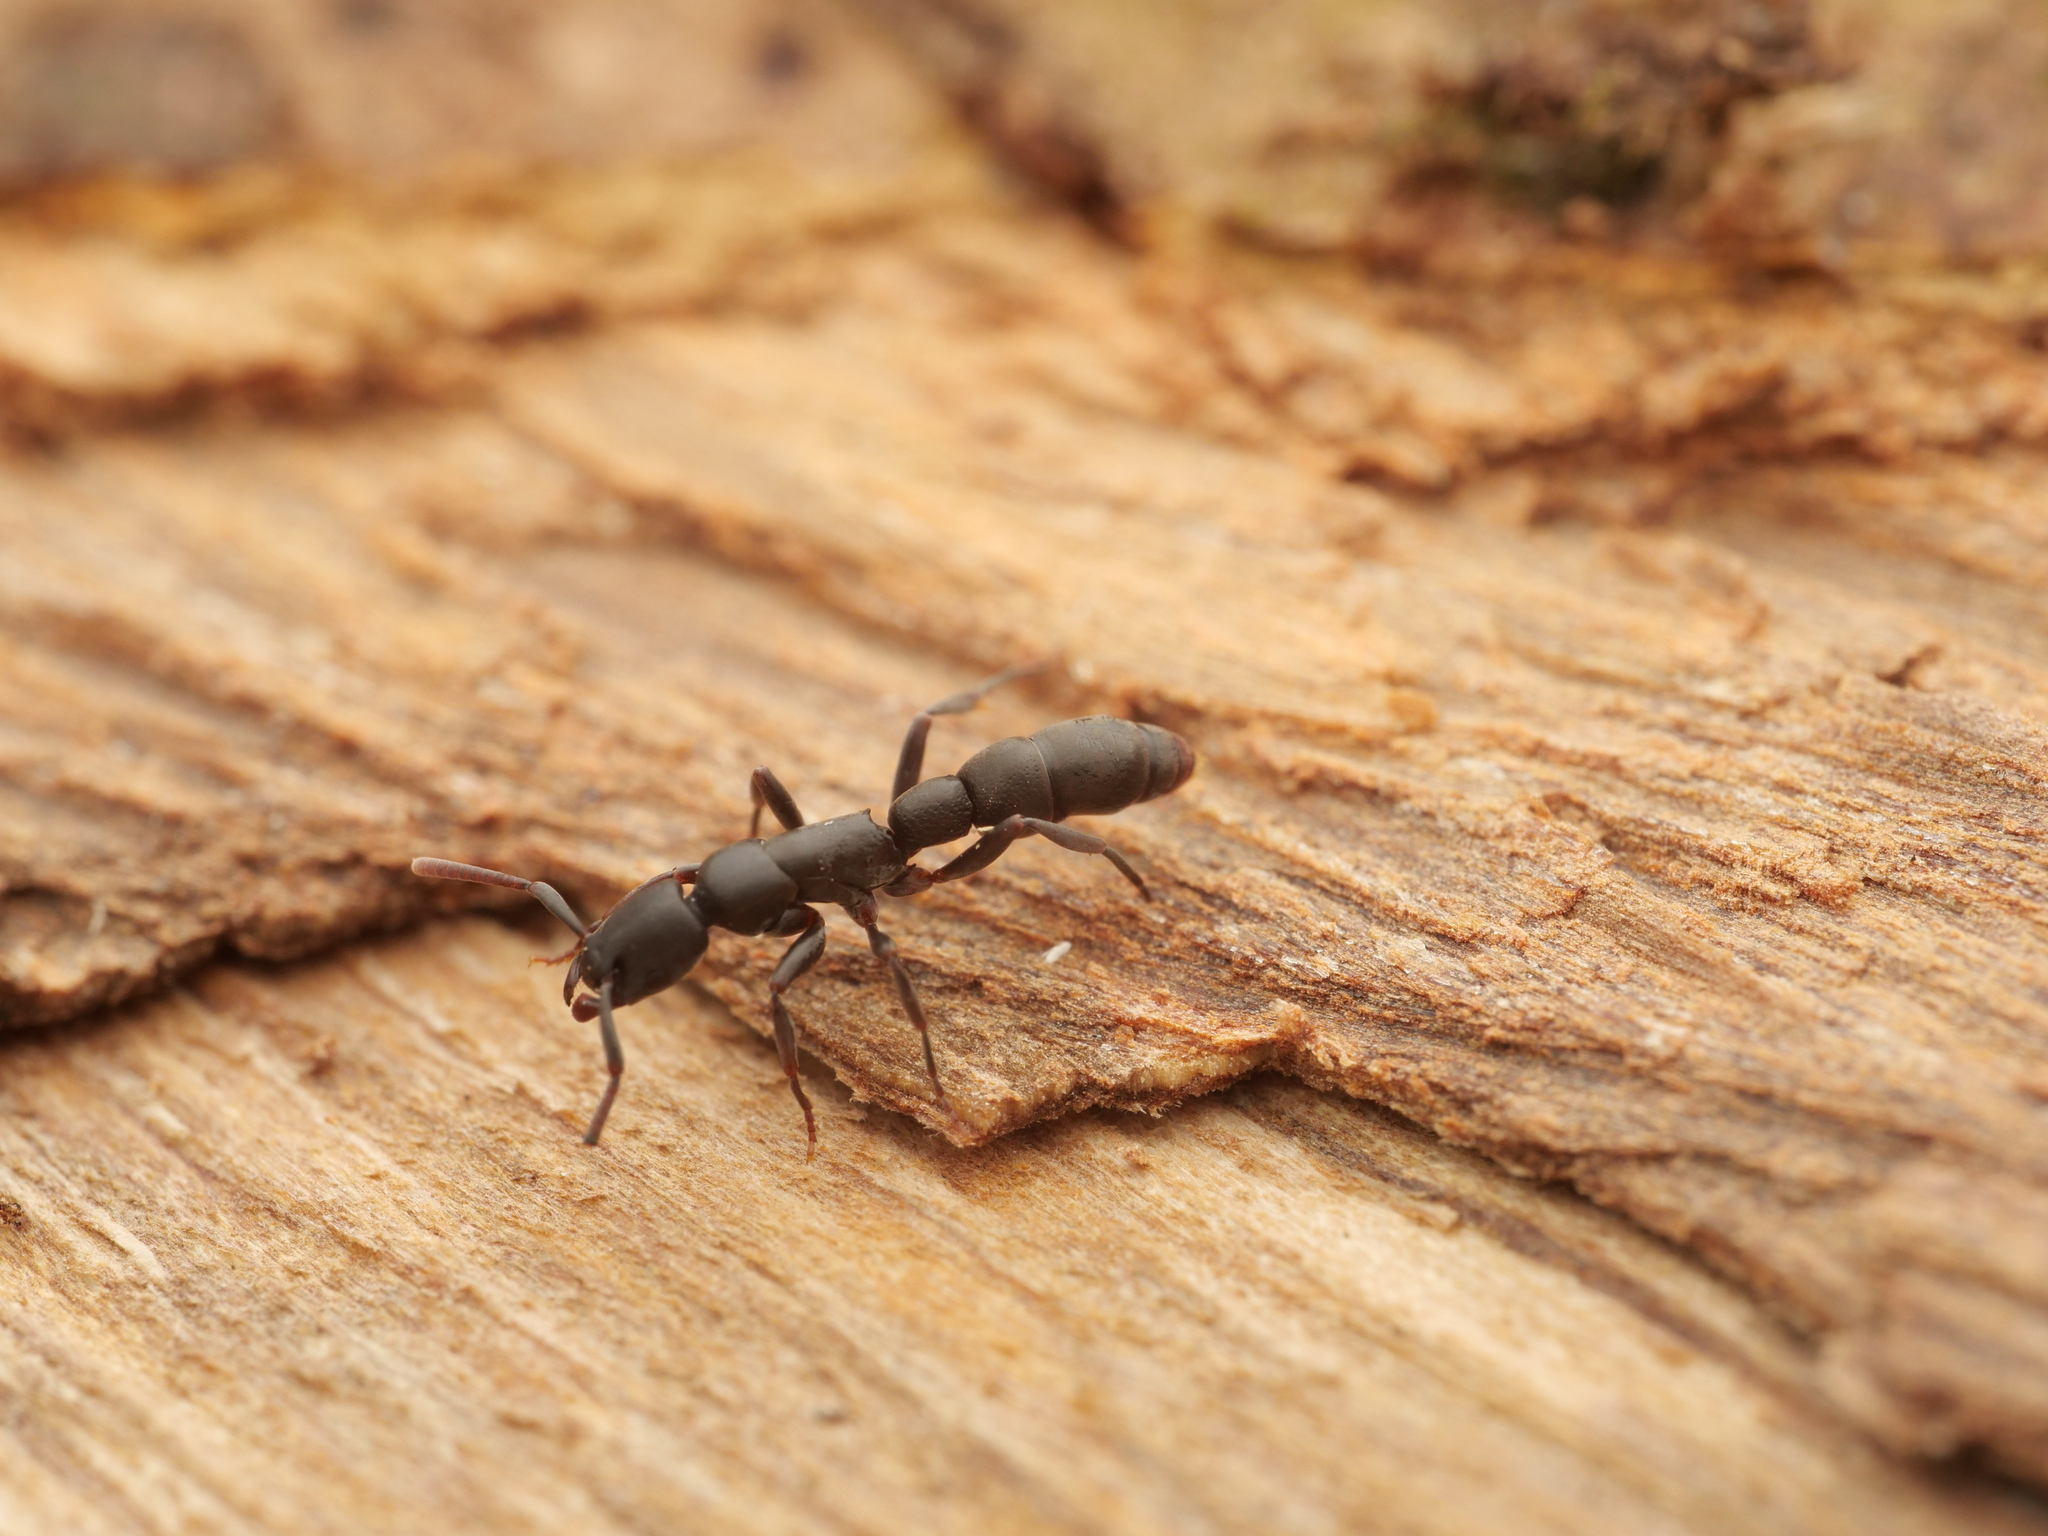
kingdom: Animalia
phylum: Arthropoda
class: Insecta
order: Hymenoptera
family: Formicidae
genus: Platythyrea
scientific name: Platythyrea parallela
